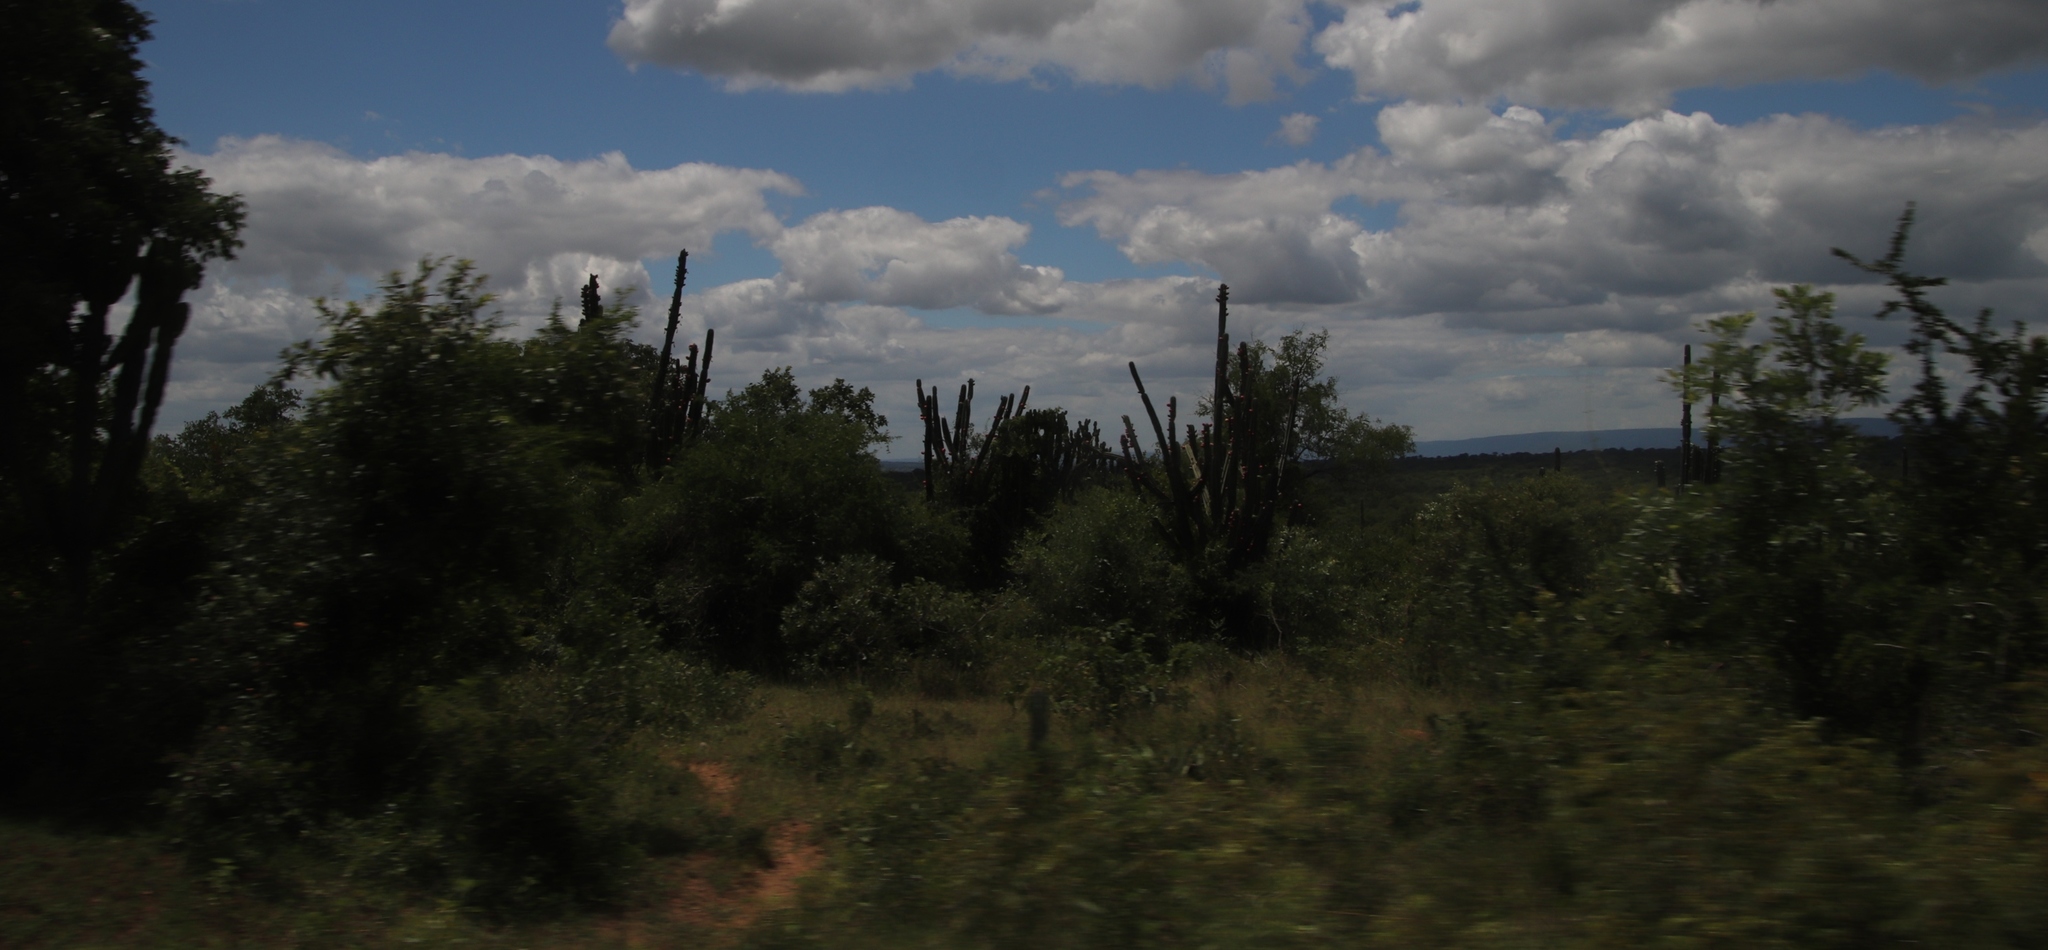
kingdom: Plantae
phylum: Tracheophyta
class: Magnoliopsida
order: Caryophyllales
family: Cactaceae
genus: Cereus
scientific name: Cereus jamacaru
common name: Queen-of-the-night
